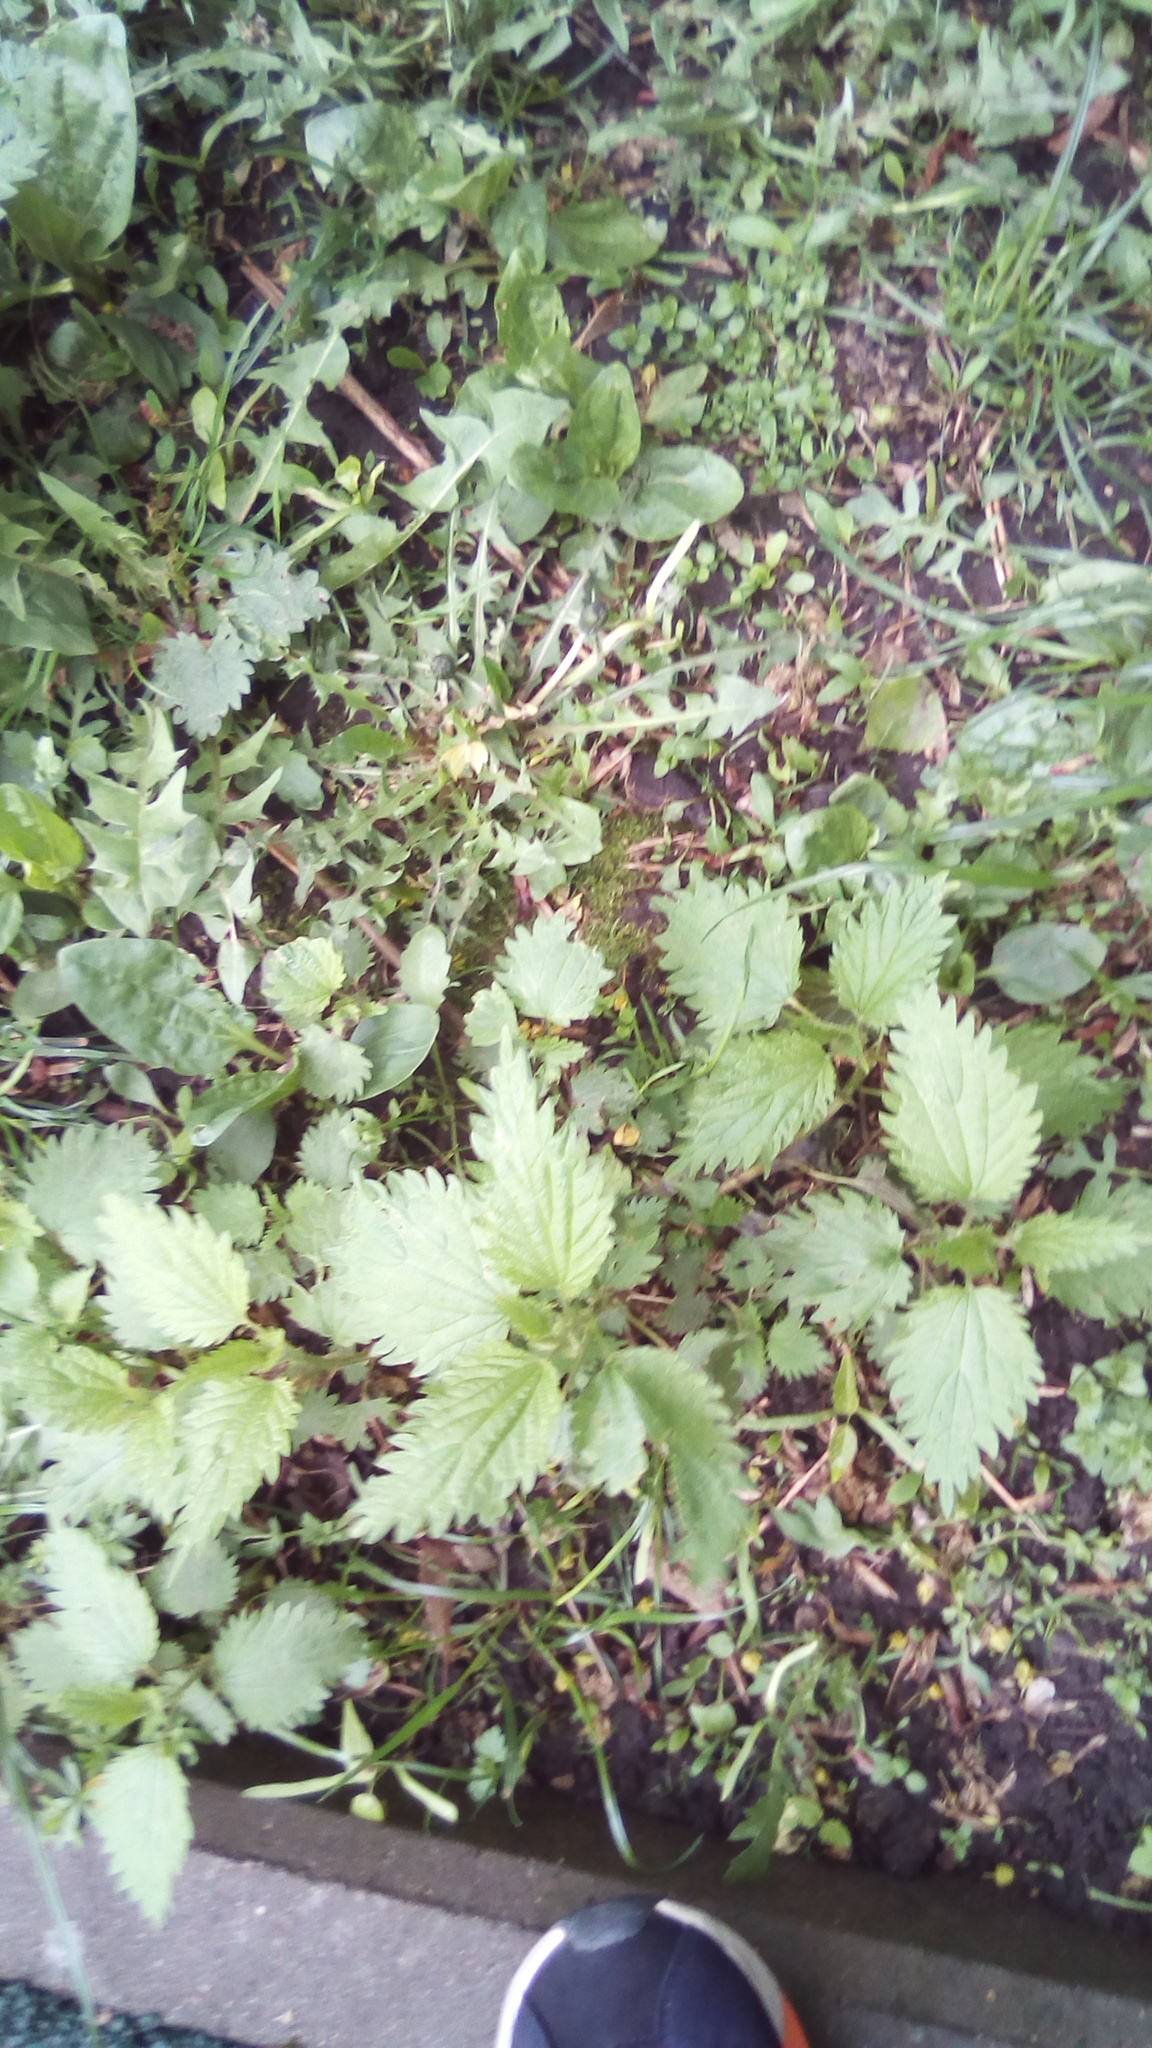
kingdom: Plantae
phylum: Tracheophyta
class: Magnoliopsida
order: Rosales
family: Urticaceae
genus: Urtica
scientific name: Urtica dioica
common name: Common nettle
